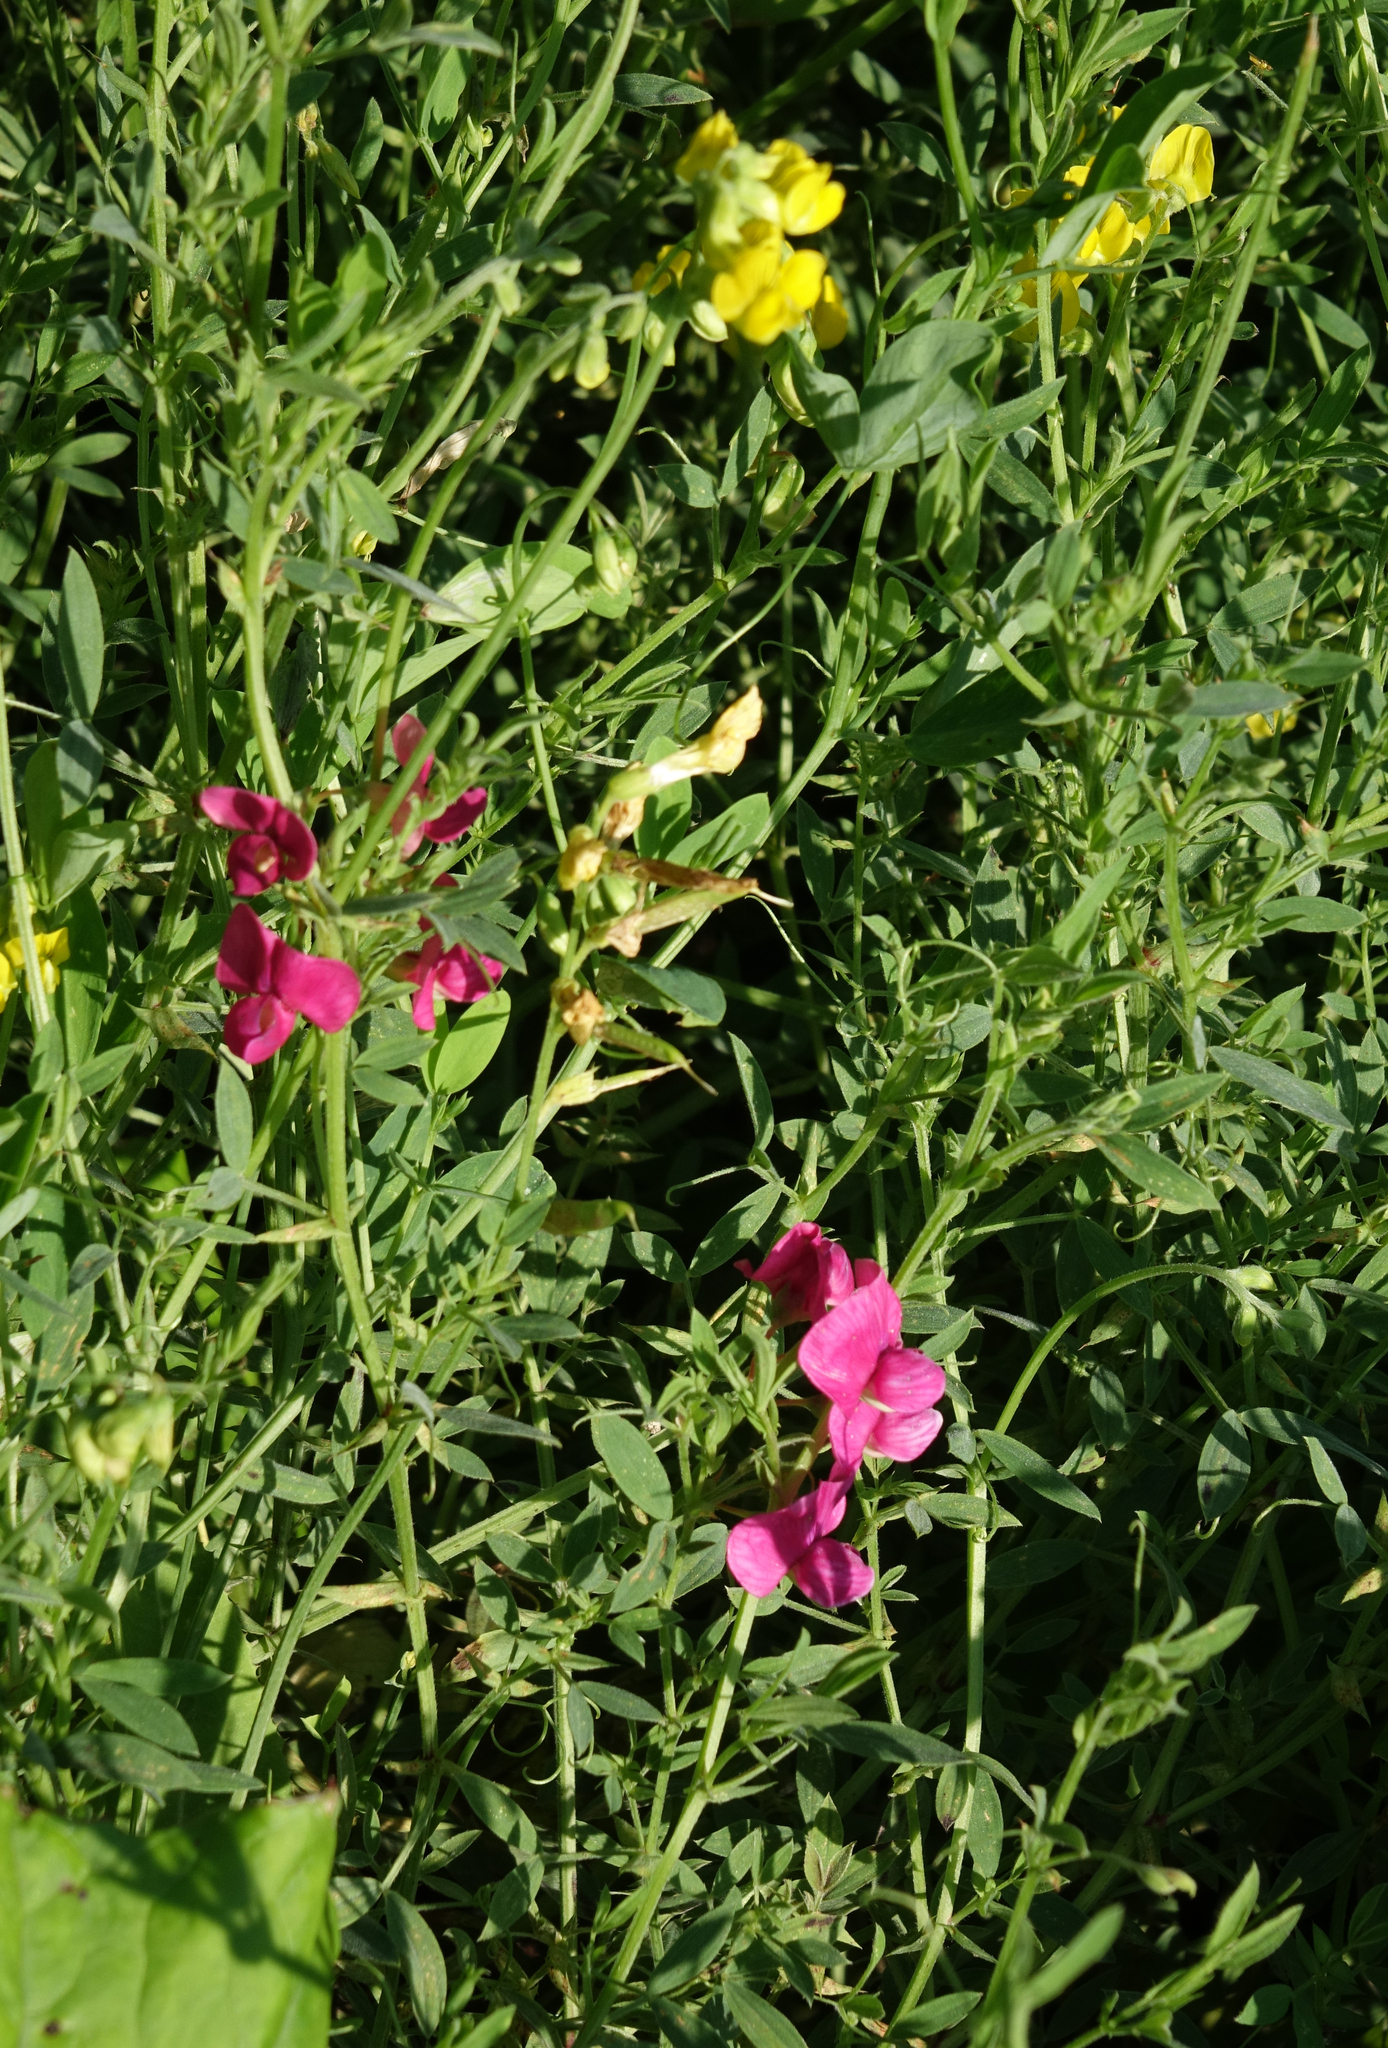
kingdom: Plantae
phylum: Tracheophyta
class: Magnoliopsida
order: Fabales
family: Fabaceae
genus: Lathyrus
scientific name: Lathyrus tuberosus
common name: Tuberous pea
